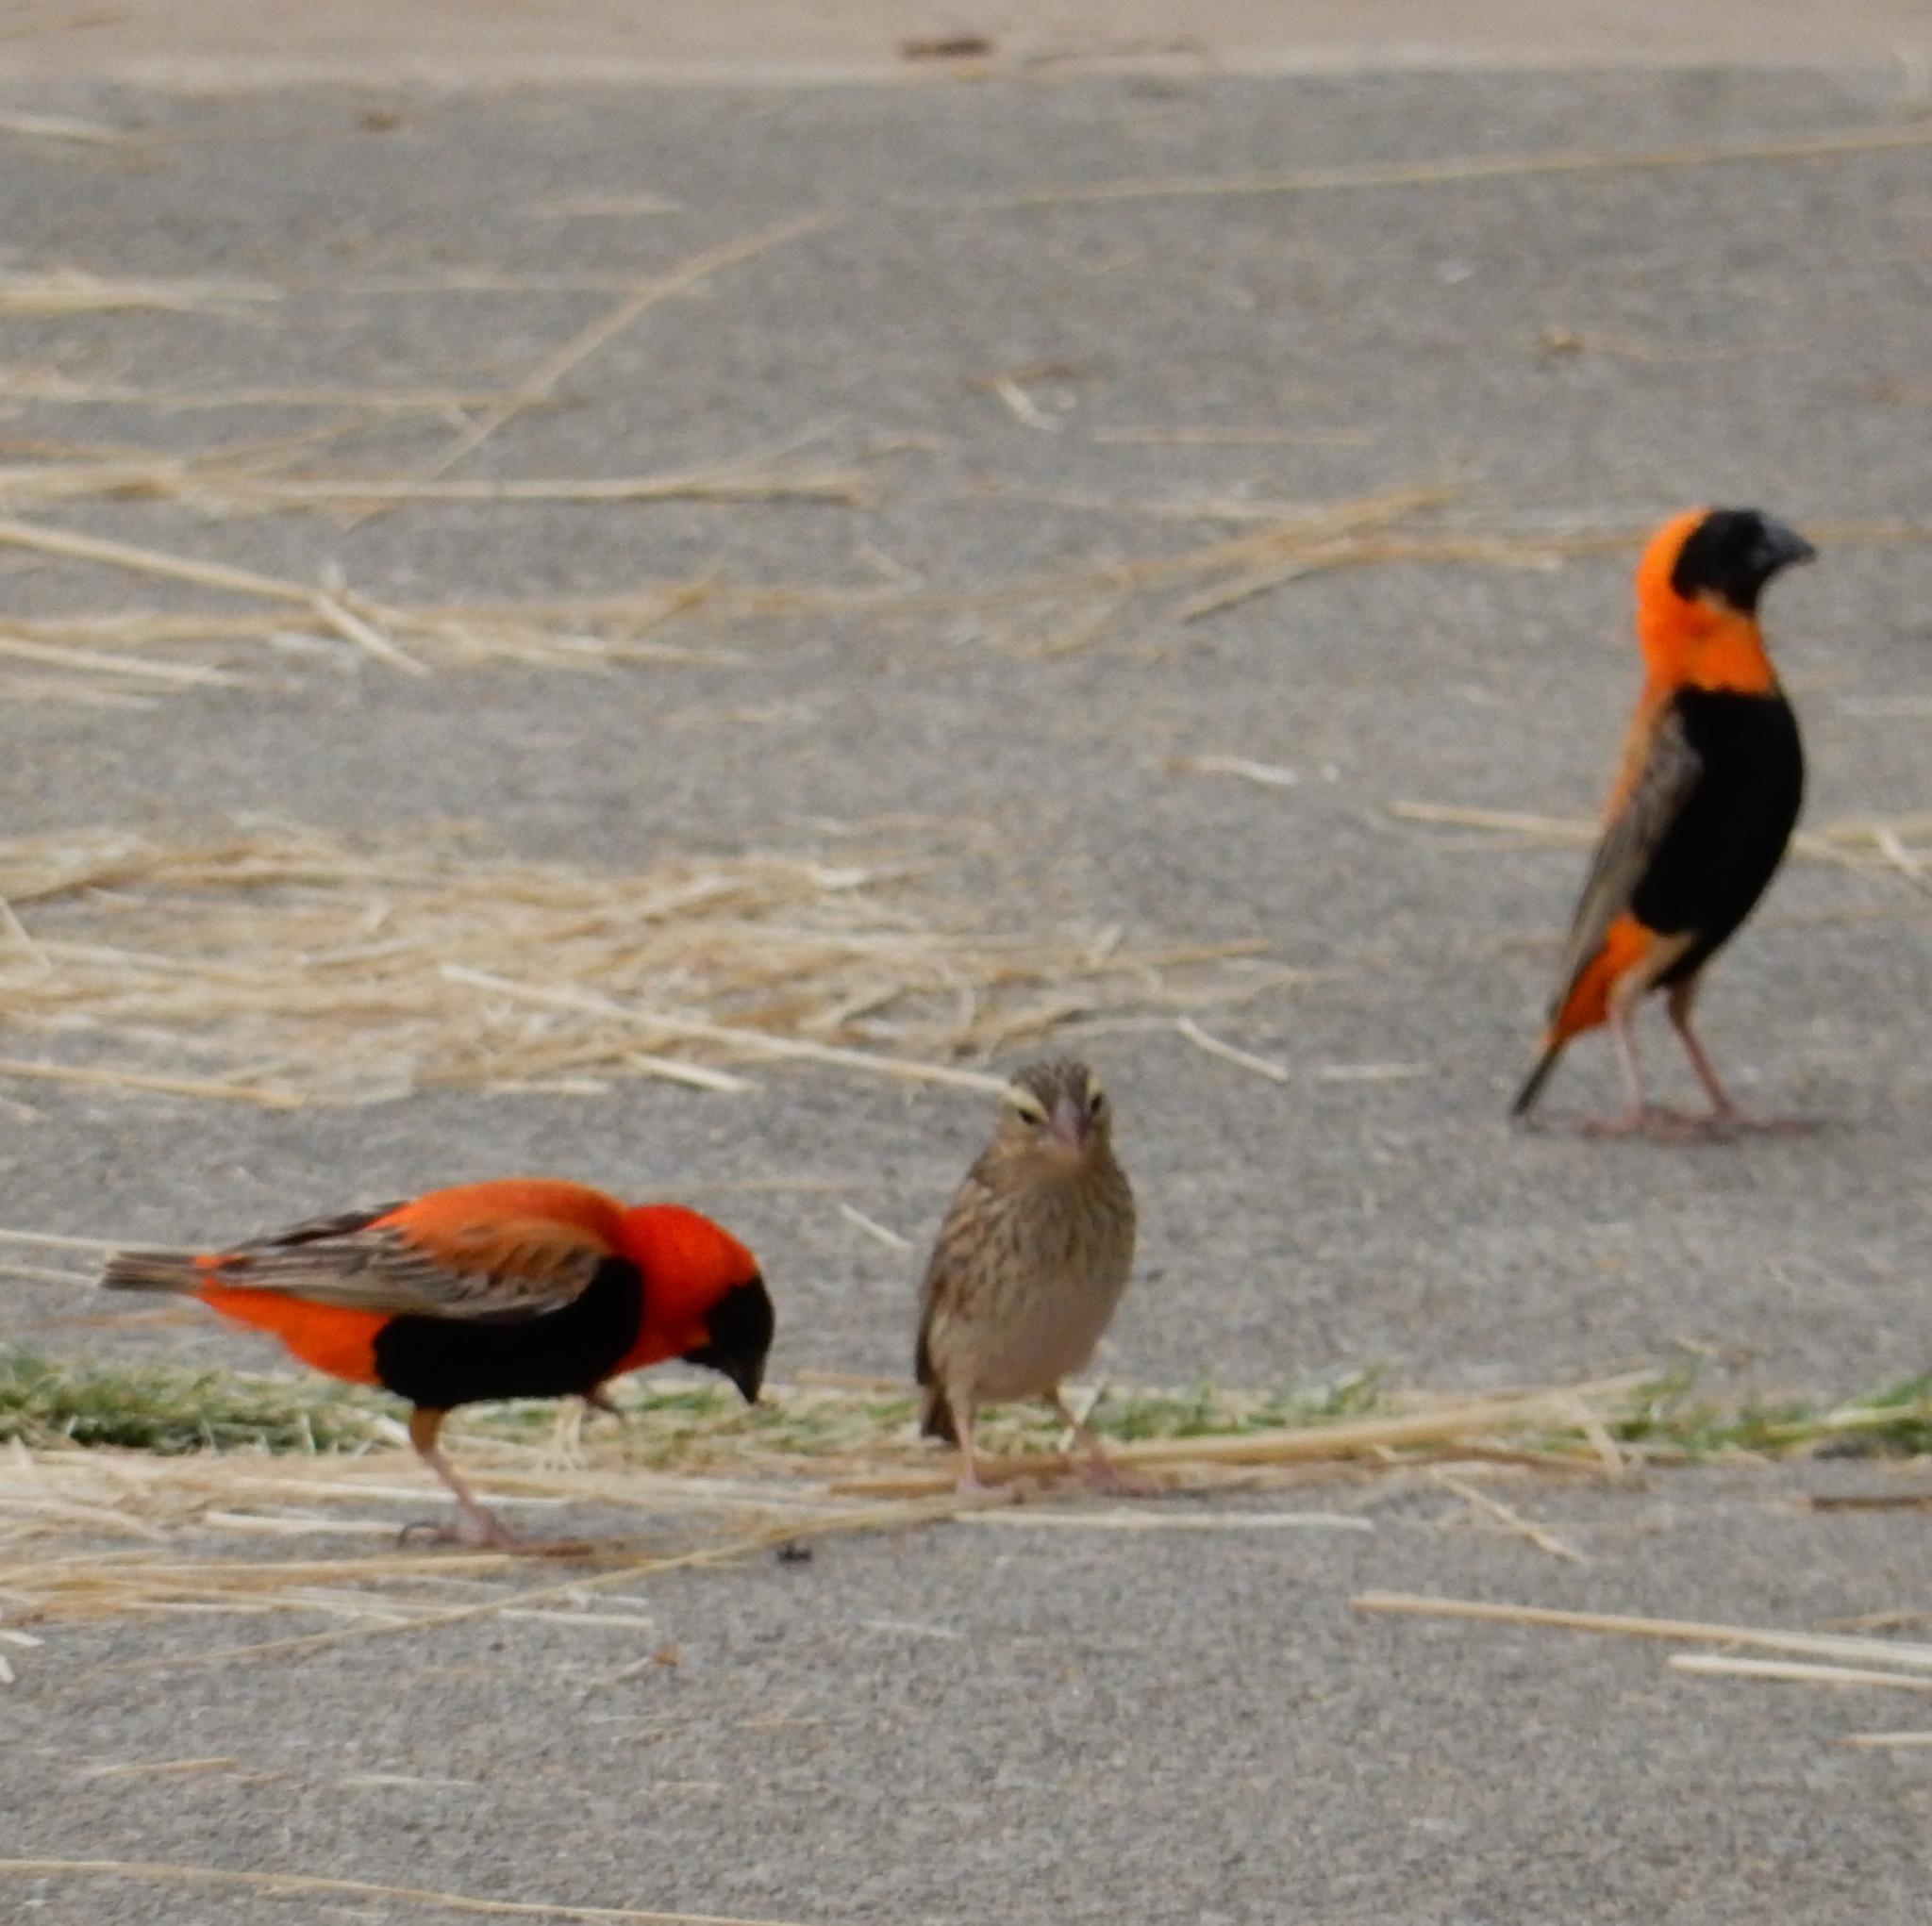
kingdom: Animalia
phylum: Chordata
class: Aves
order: Passeriformes
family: Ploceidae
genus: Euplectes
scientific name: Euplectes orix
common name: Southern red bishop
